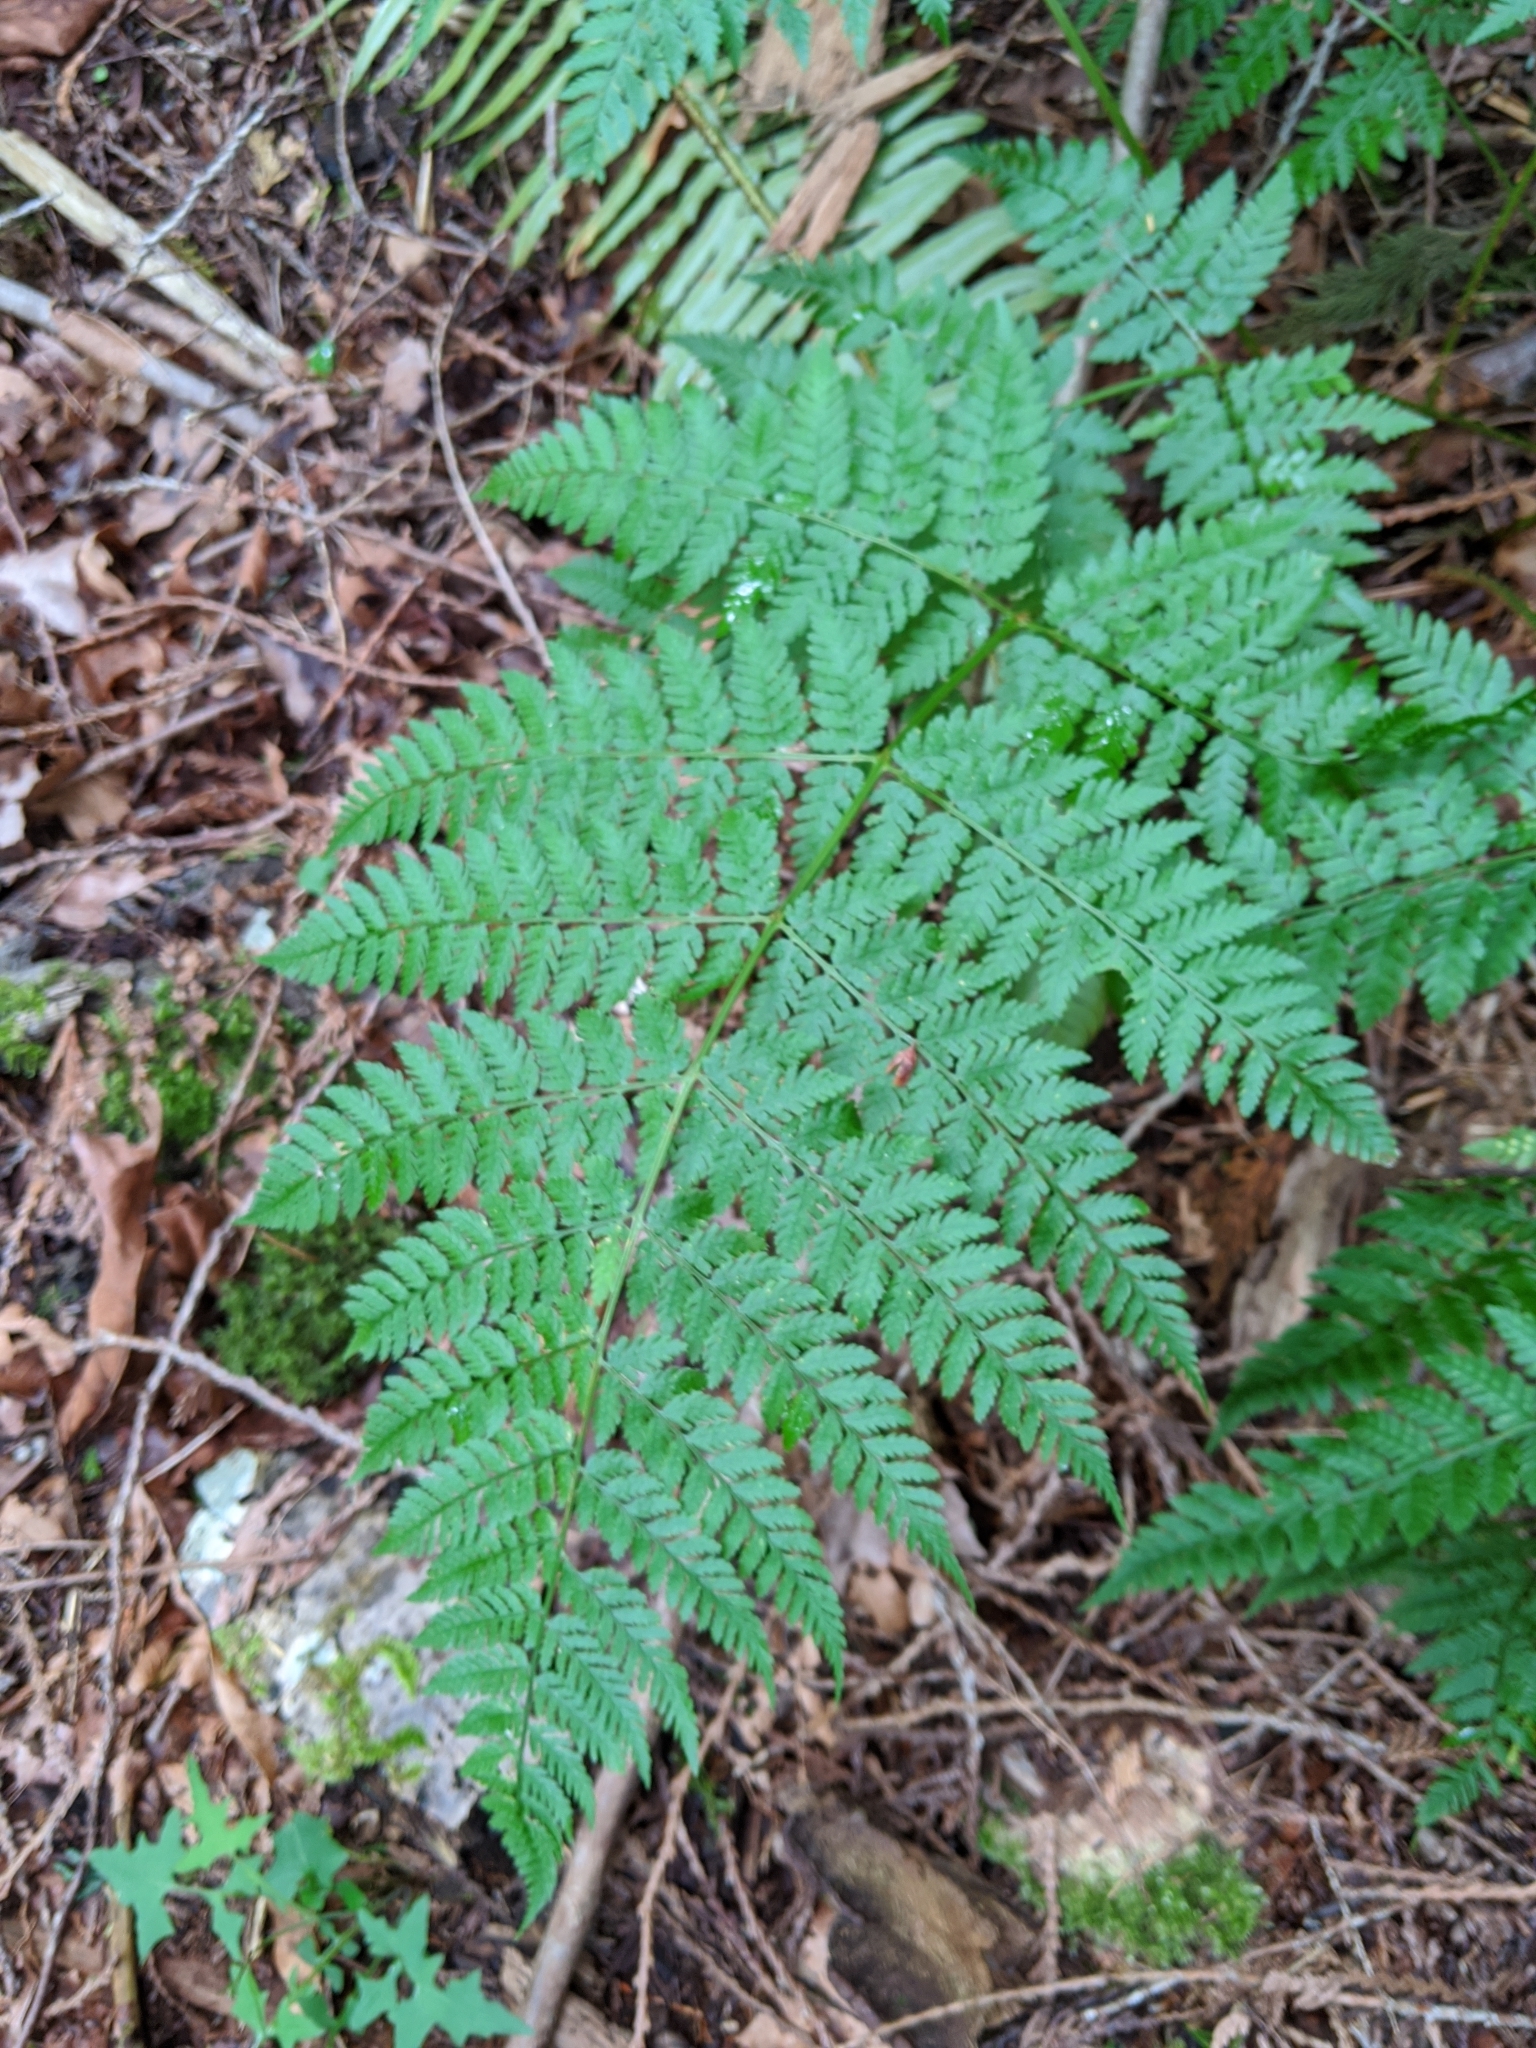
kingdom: Plantae
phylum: Tracheophyta
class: Polypodiopsida
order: Polypodiales
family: Dryopteridaceae
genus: Dryopteris
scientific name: Dryopteris expansa
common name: Northern buckler fern
